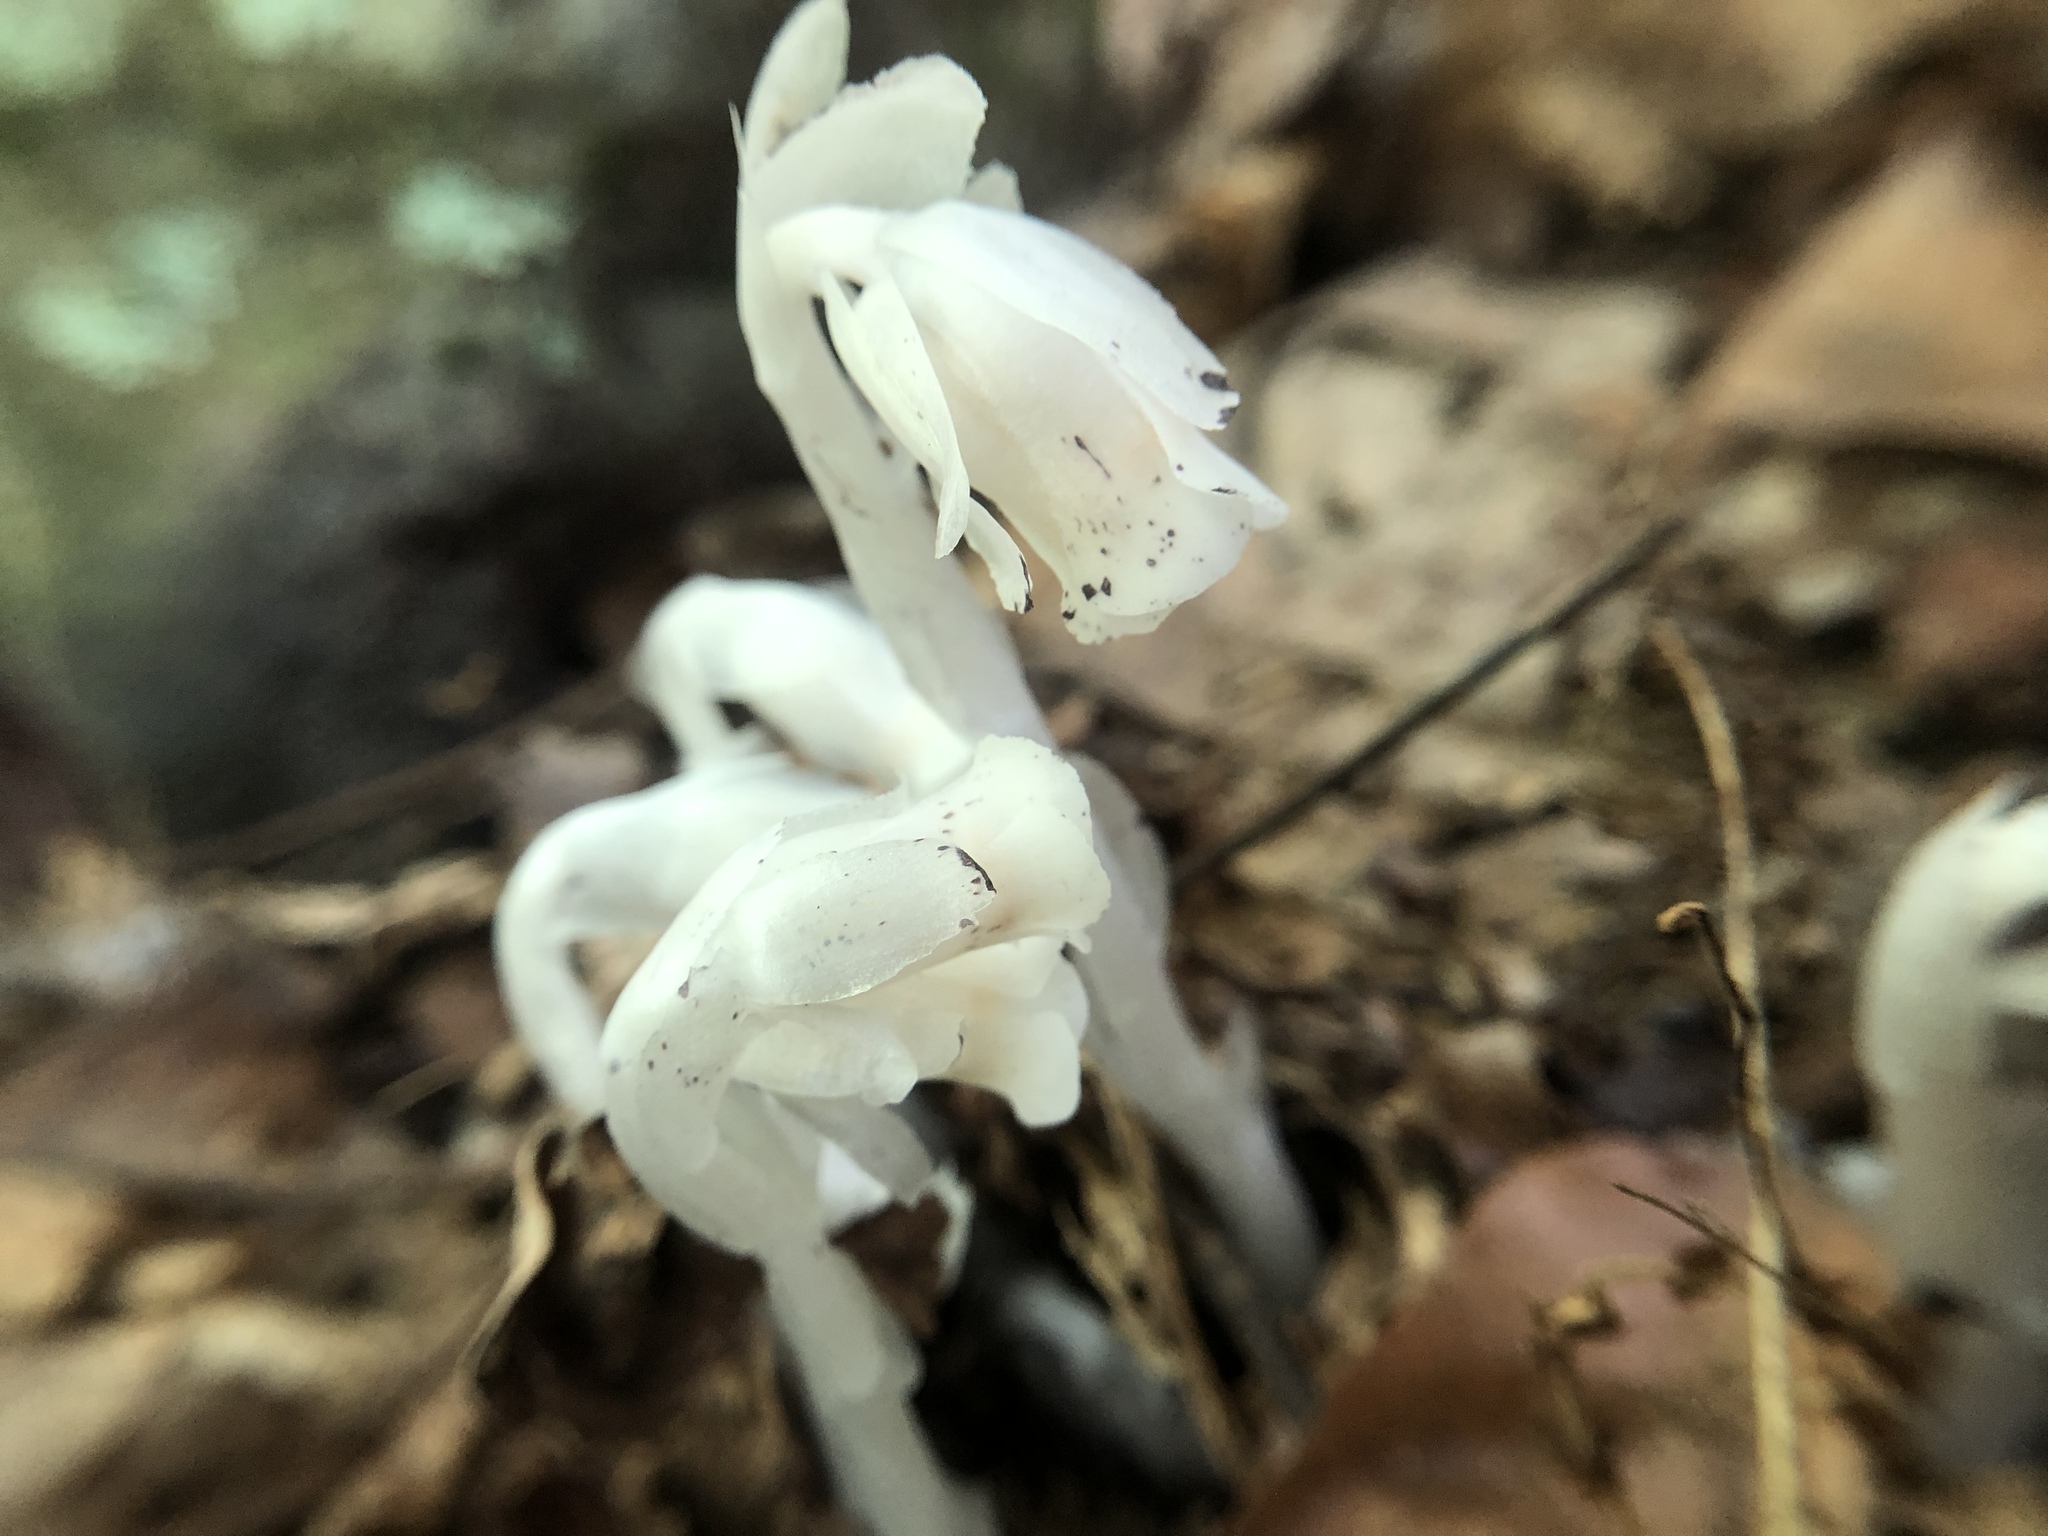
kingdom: Plantae
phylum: Tracheophyta
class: Magnoliopsida
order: Ericales
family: Ericaceae
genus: Monotropa
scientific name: Monotropa uniflora
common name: Convulsion root
